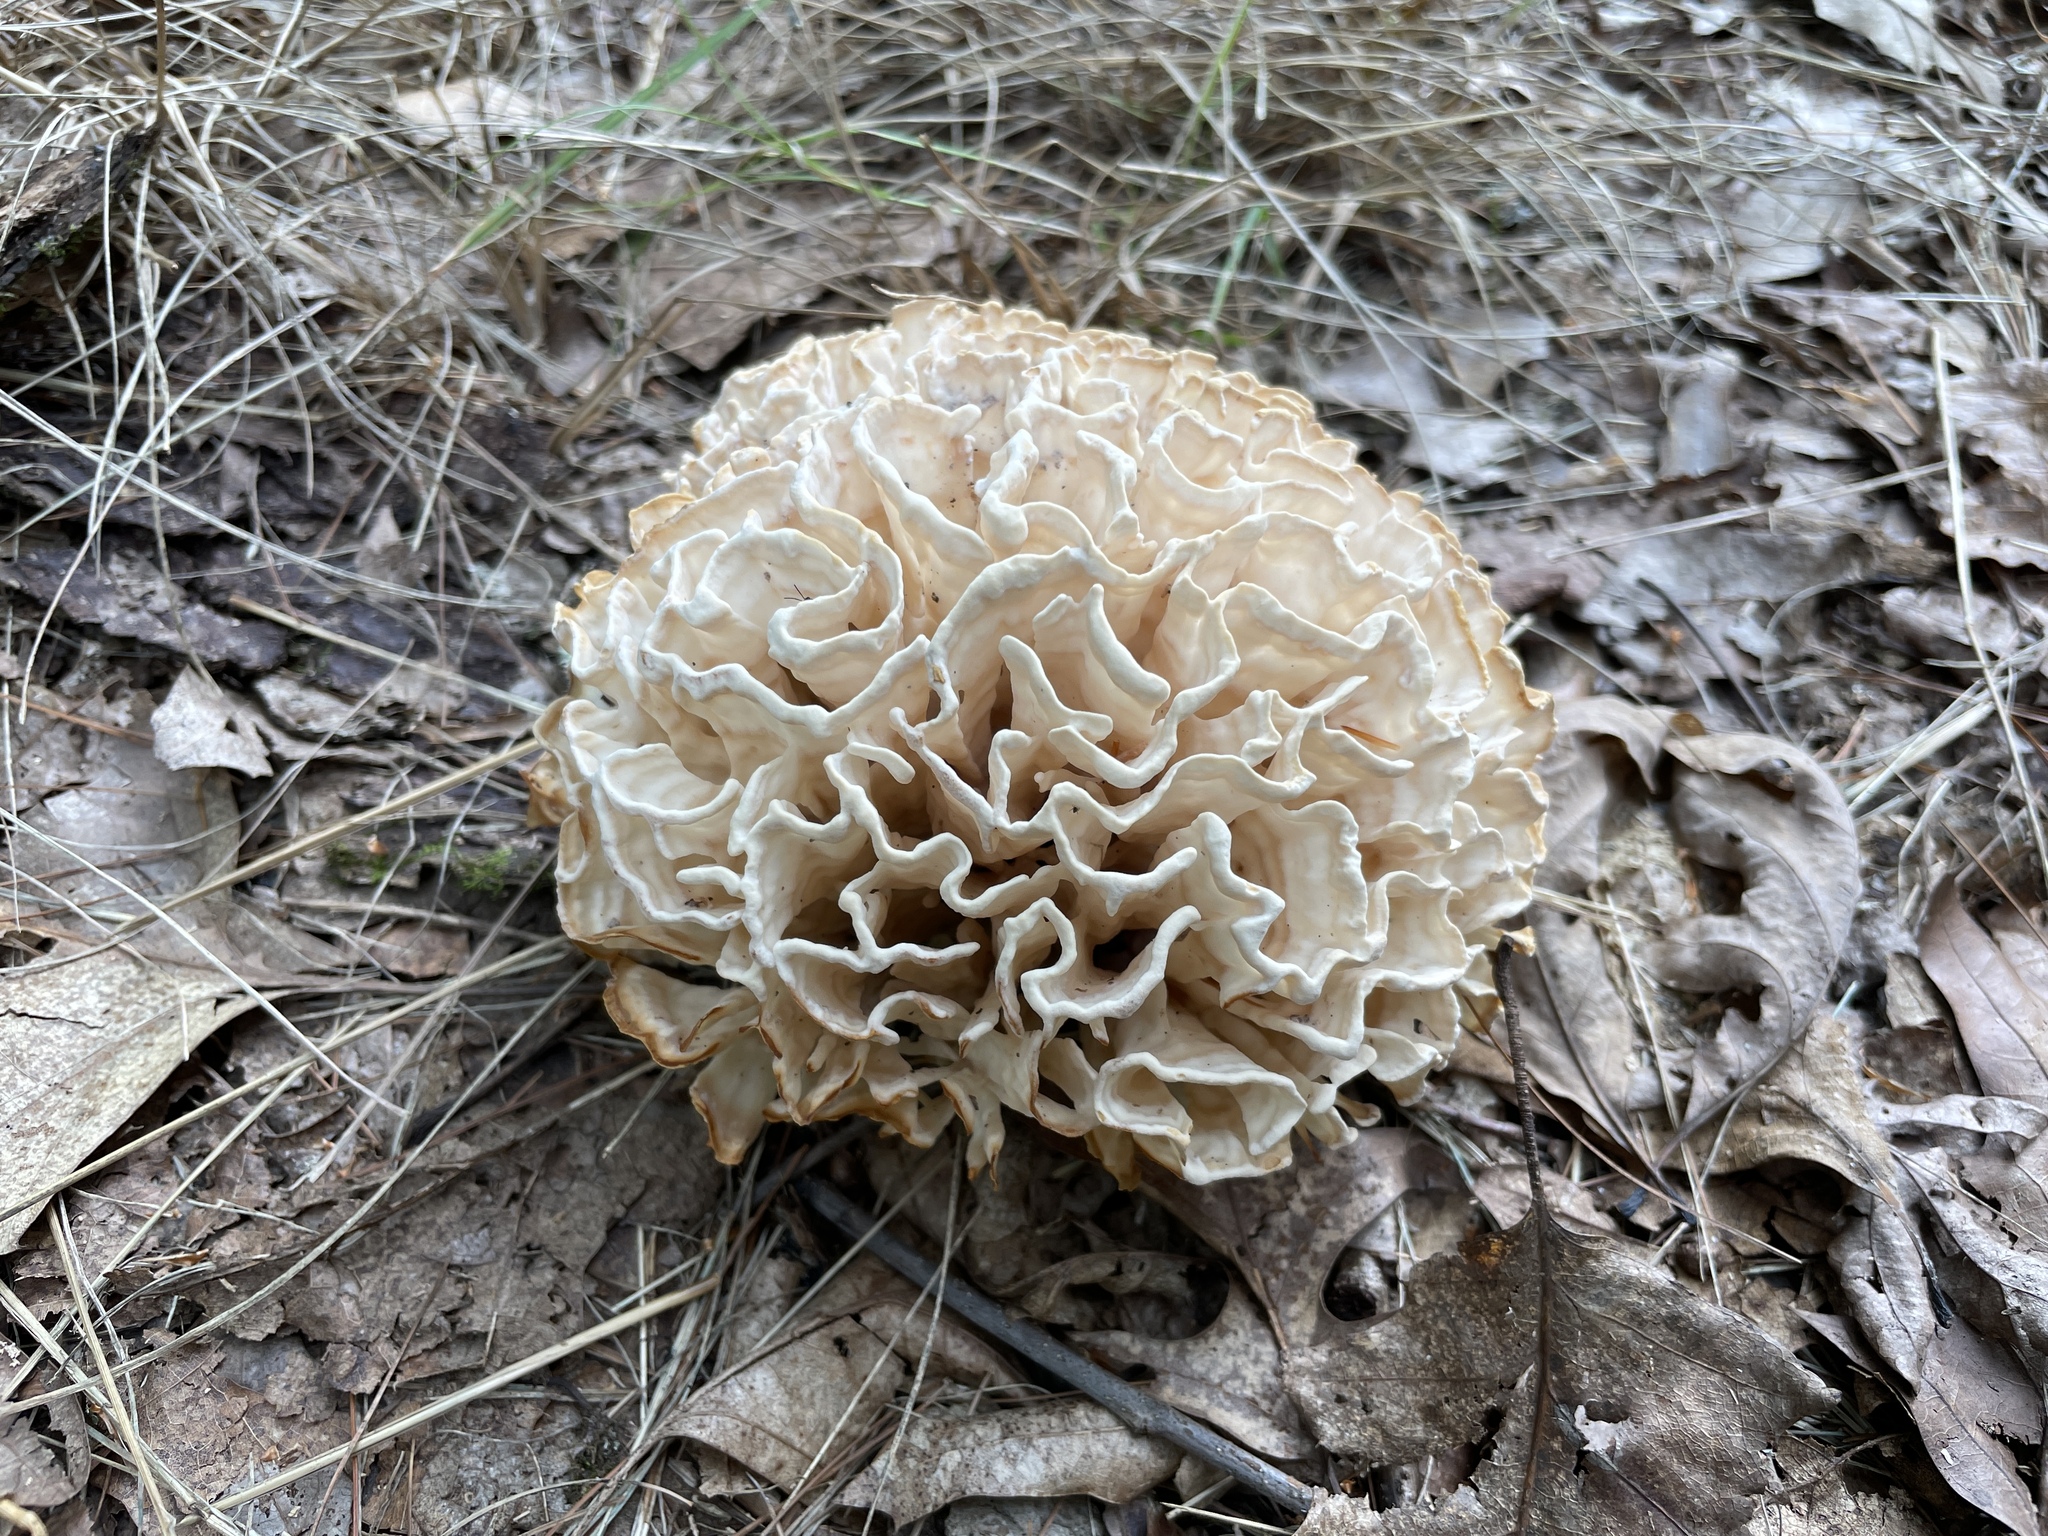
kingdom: Fungi
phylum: Basidiomycota
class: Agaricomycetes
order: Polyporales
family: Sparassidaceae
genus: Sparassis
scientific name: Sparassis spathulata
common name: Eastern cauliflower mushroom
